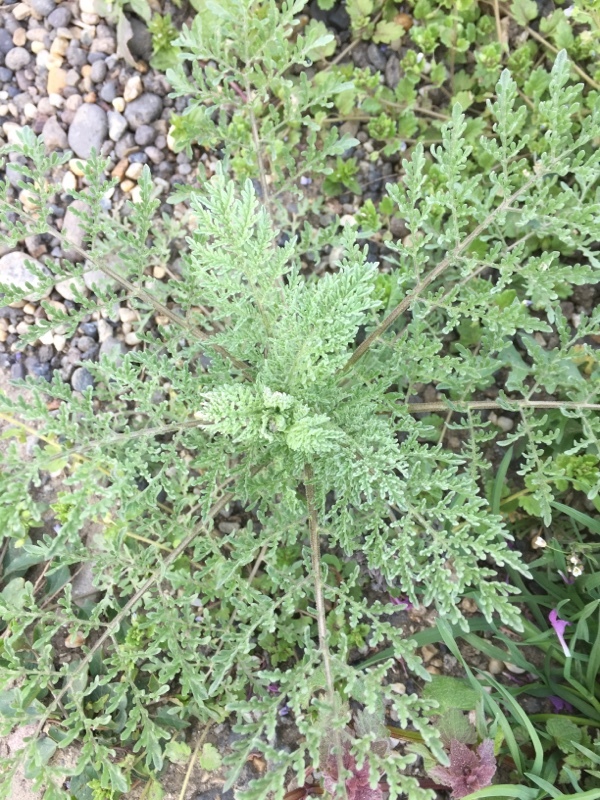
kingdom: Plantae
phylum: Tracheophyta
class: Magnoliopsida
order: Brassicales
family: Brassicaceae
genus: Descurainia
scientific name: Descurainia sophia
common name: Flixweed
